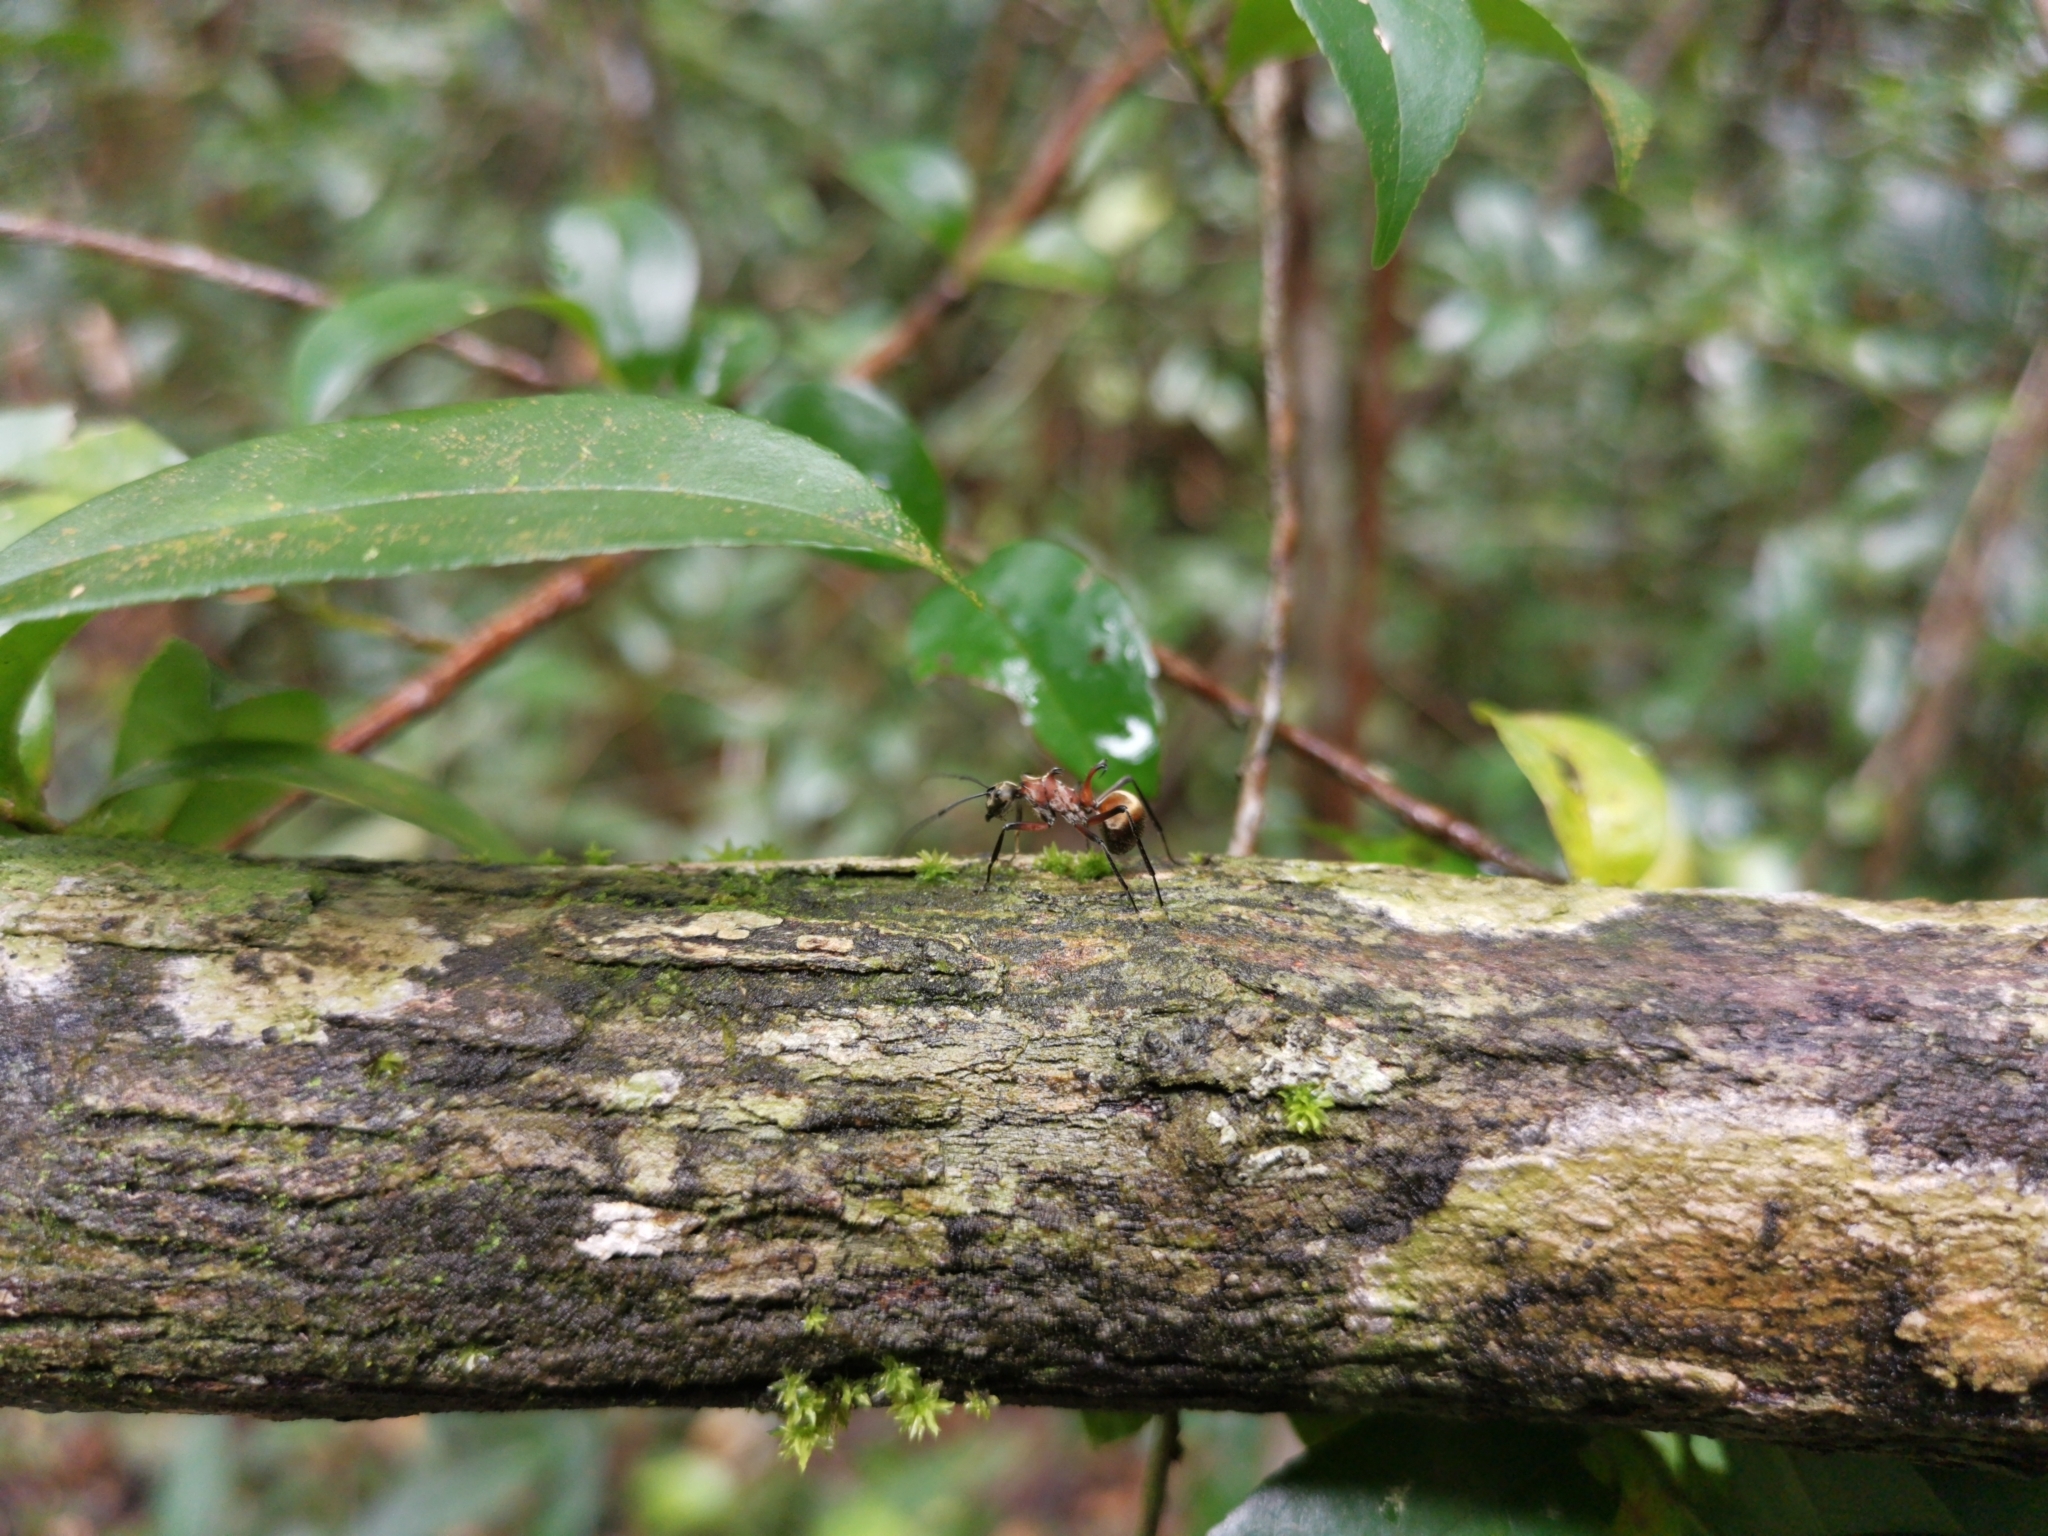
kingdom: Animalia
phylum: Arthropoda
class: Insecta
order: Hymenoptera
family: Formicidae
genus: Polyrhachis
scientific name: Polyrhachis bihamata
